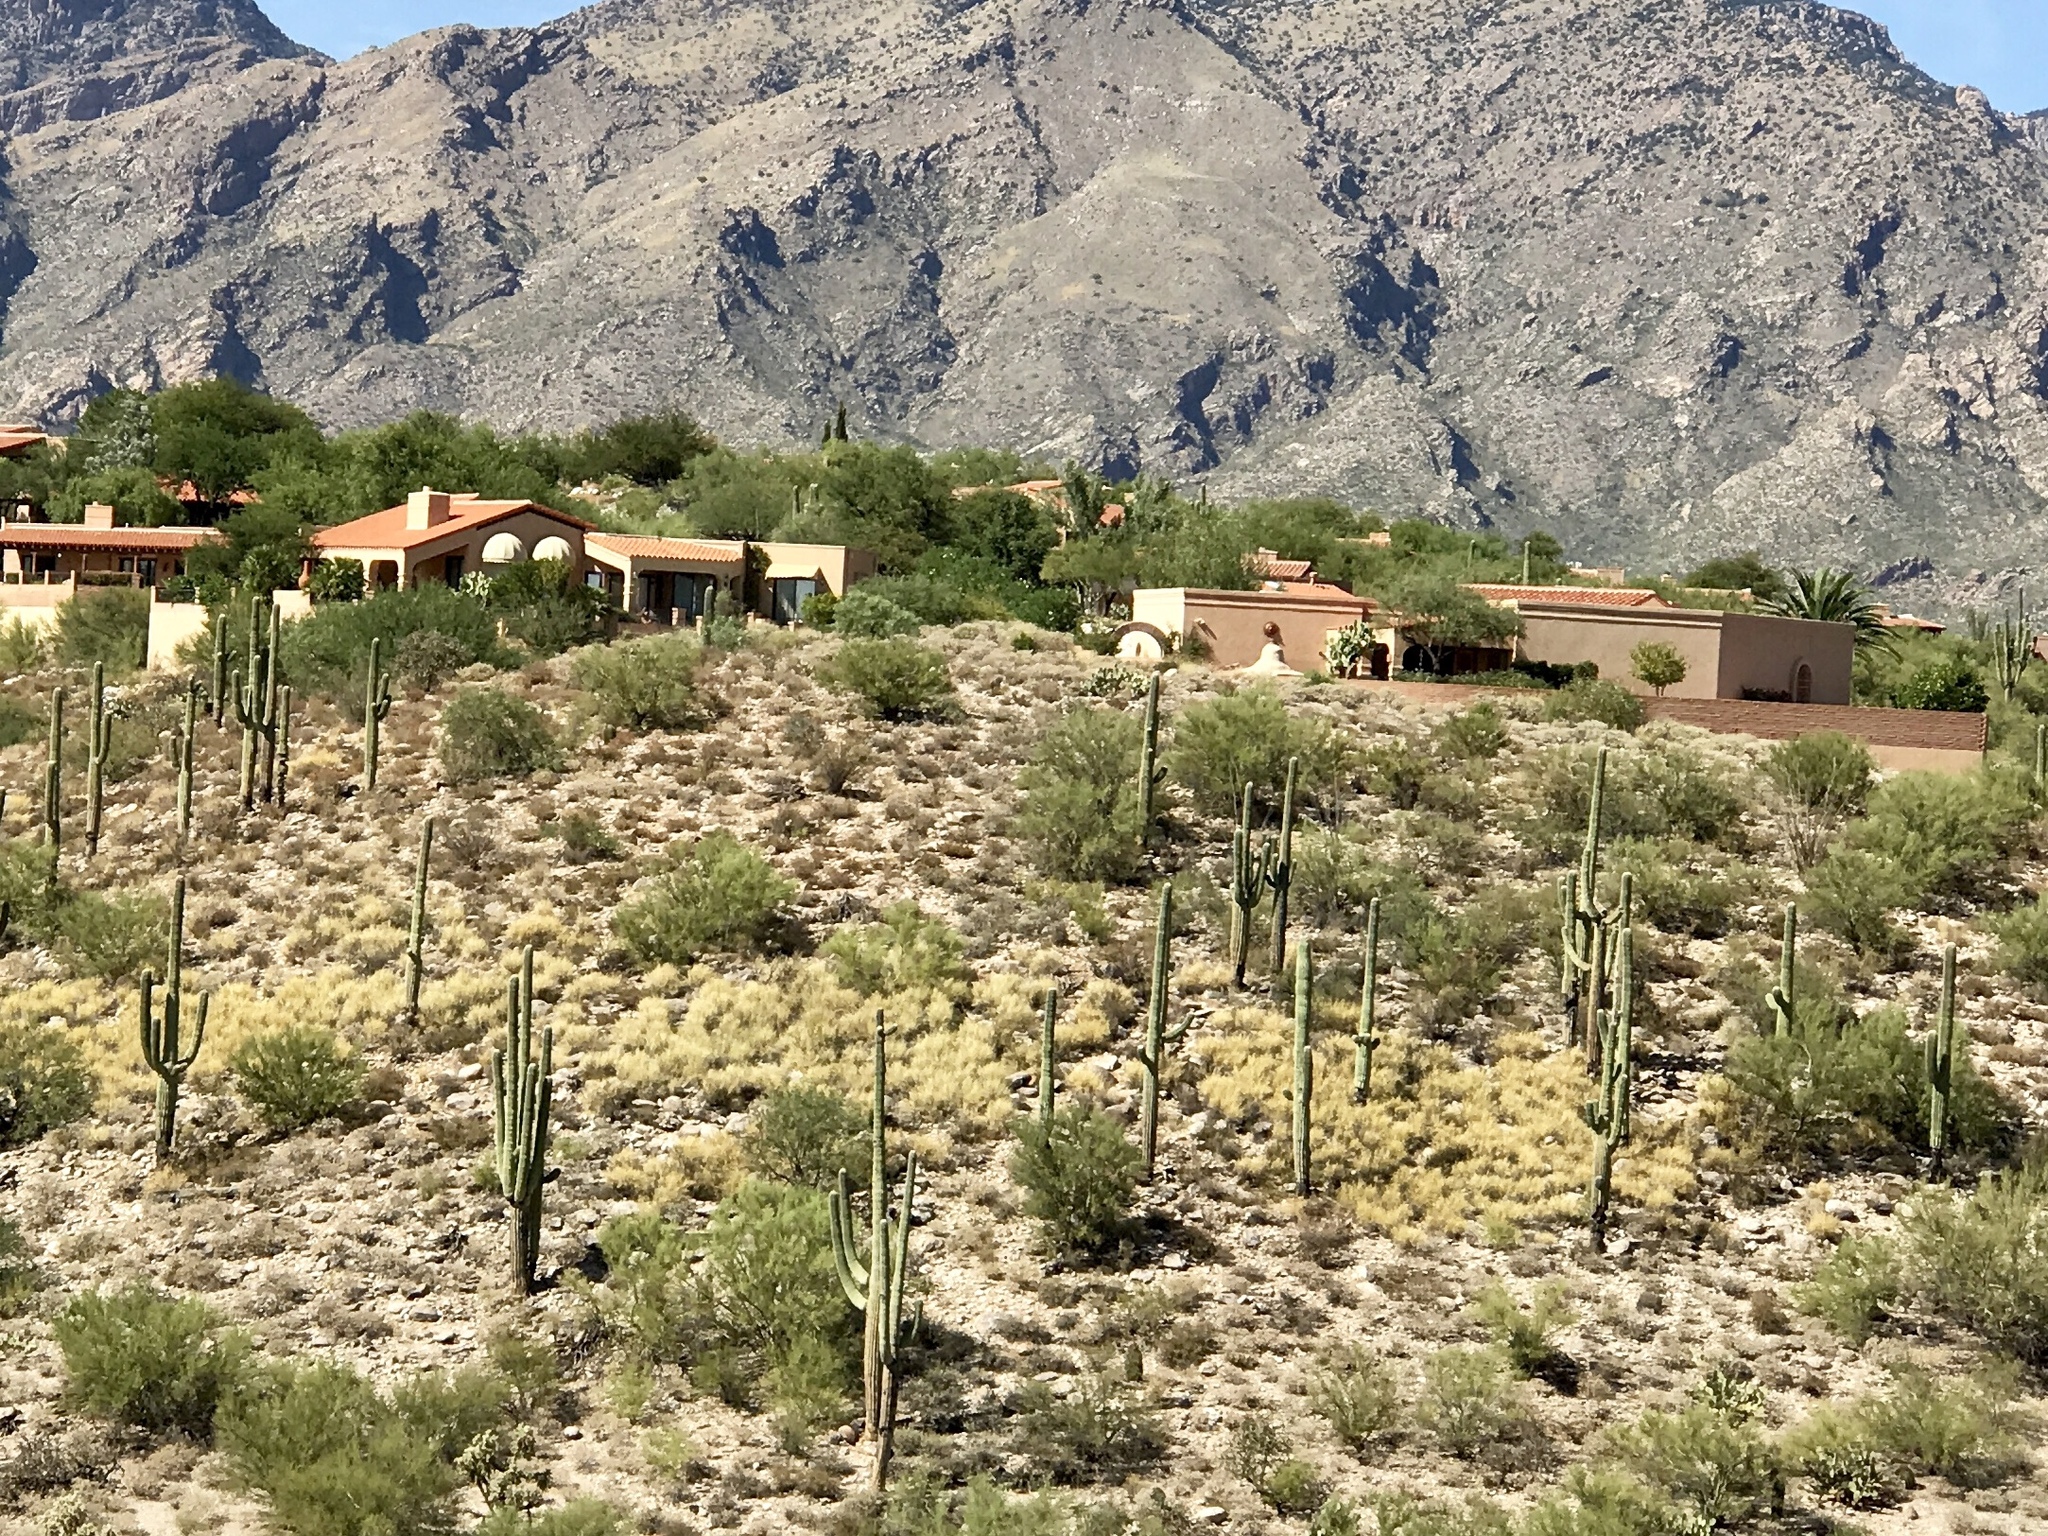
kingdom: Plantae
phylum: Tracheophyta
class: Magnoliopsida
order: Caryophyllales
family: Cactaceae
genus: Carnegiea
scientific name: Carnegiea gigantea
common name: Saguaro
